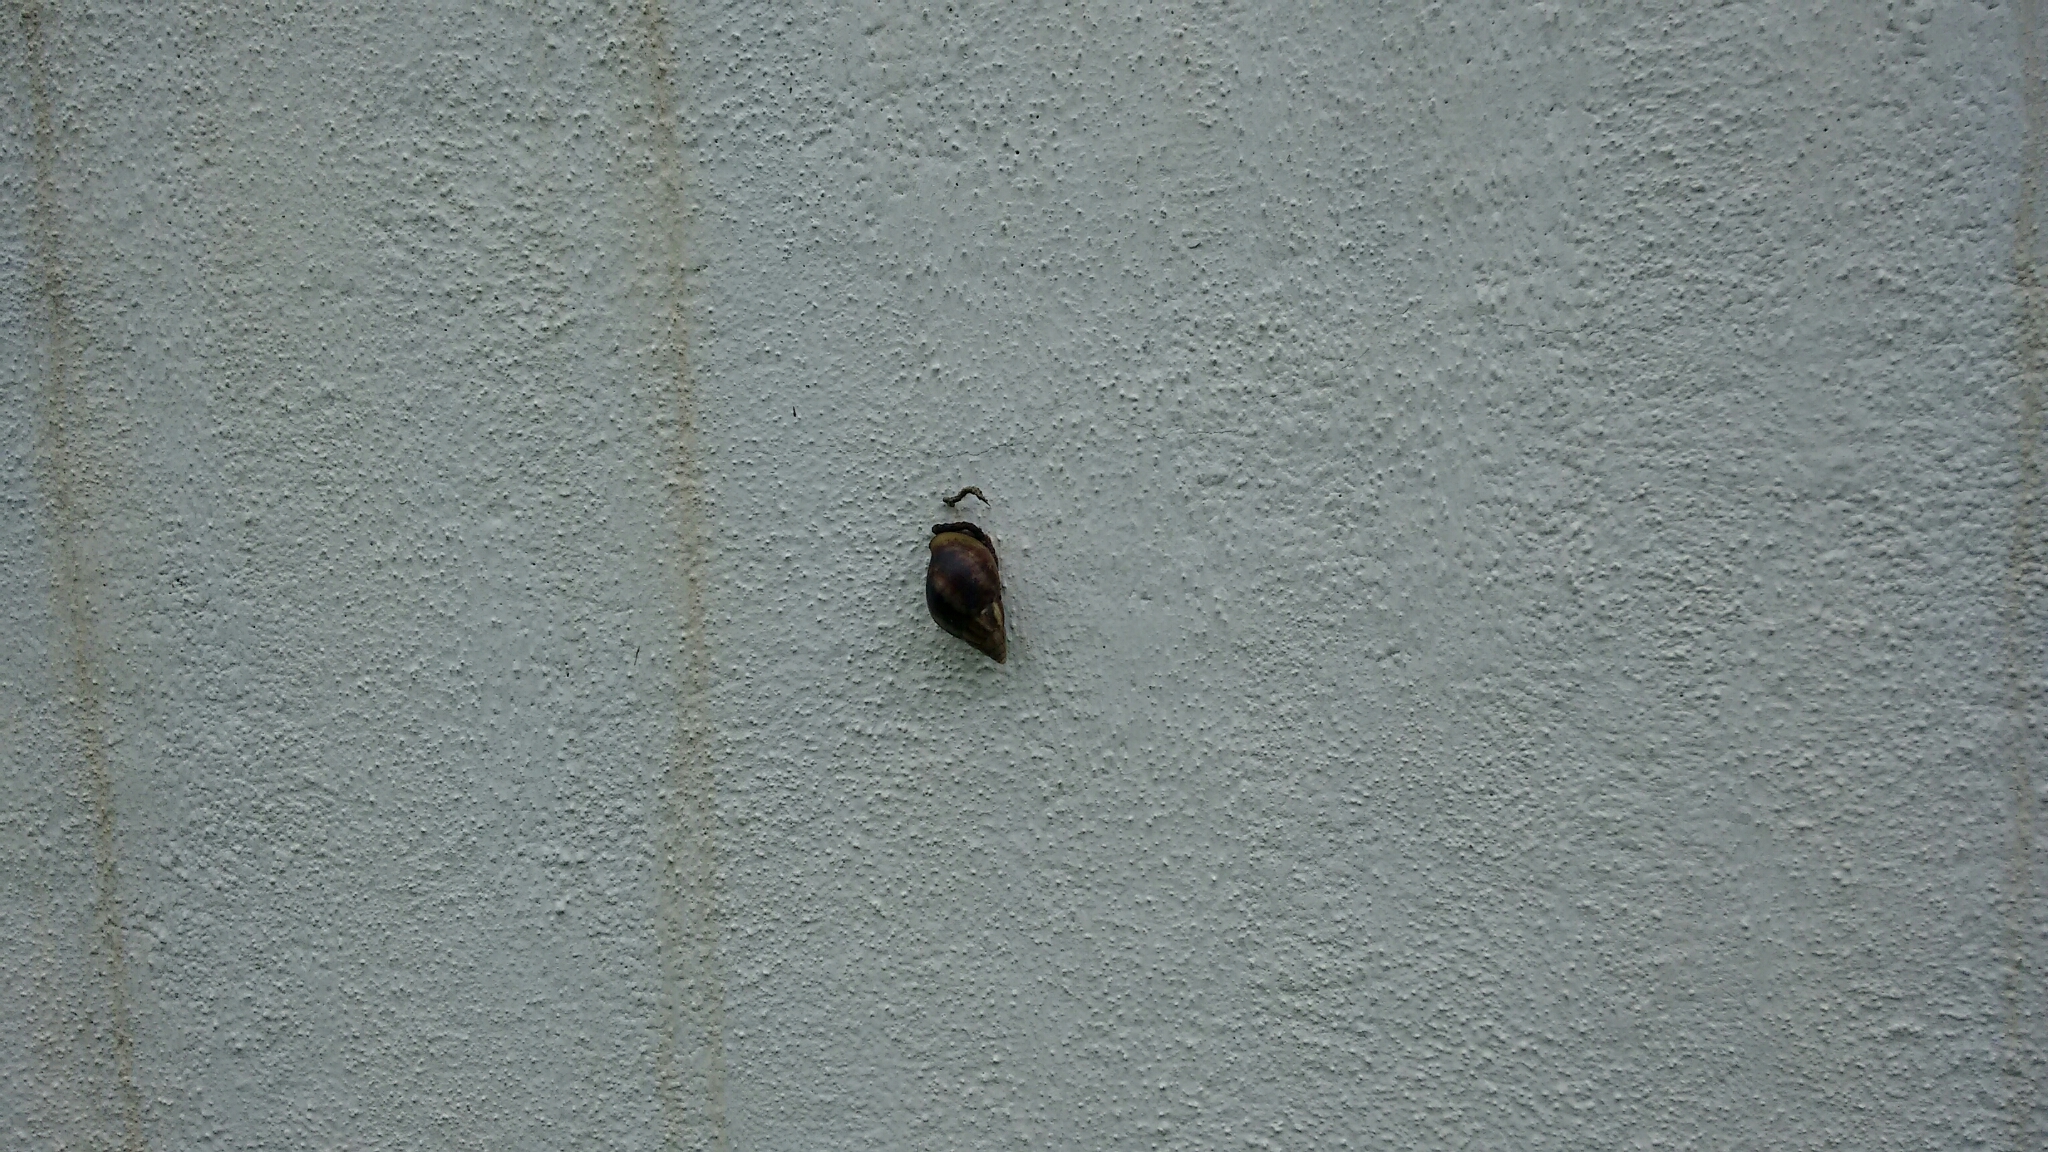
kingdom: Animalia
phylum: Mollusca
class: Gastropoda
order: Stylommatophora
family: Achatinidae
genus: Lissachatina
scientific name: Lissachatina fulica
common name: Giant african snail
